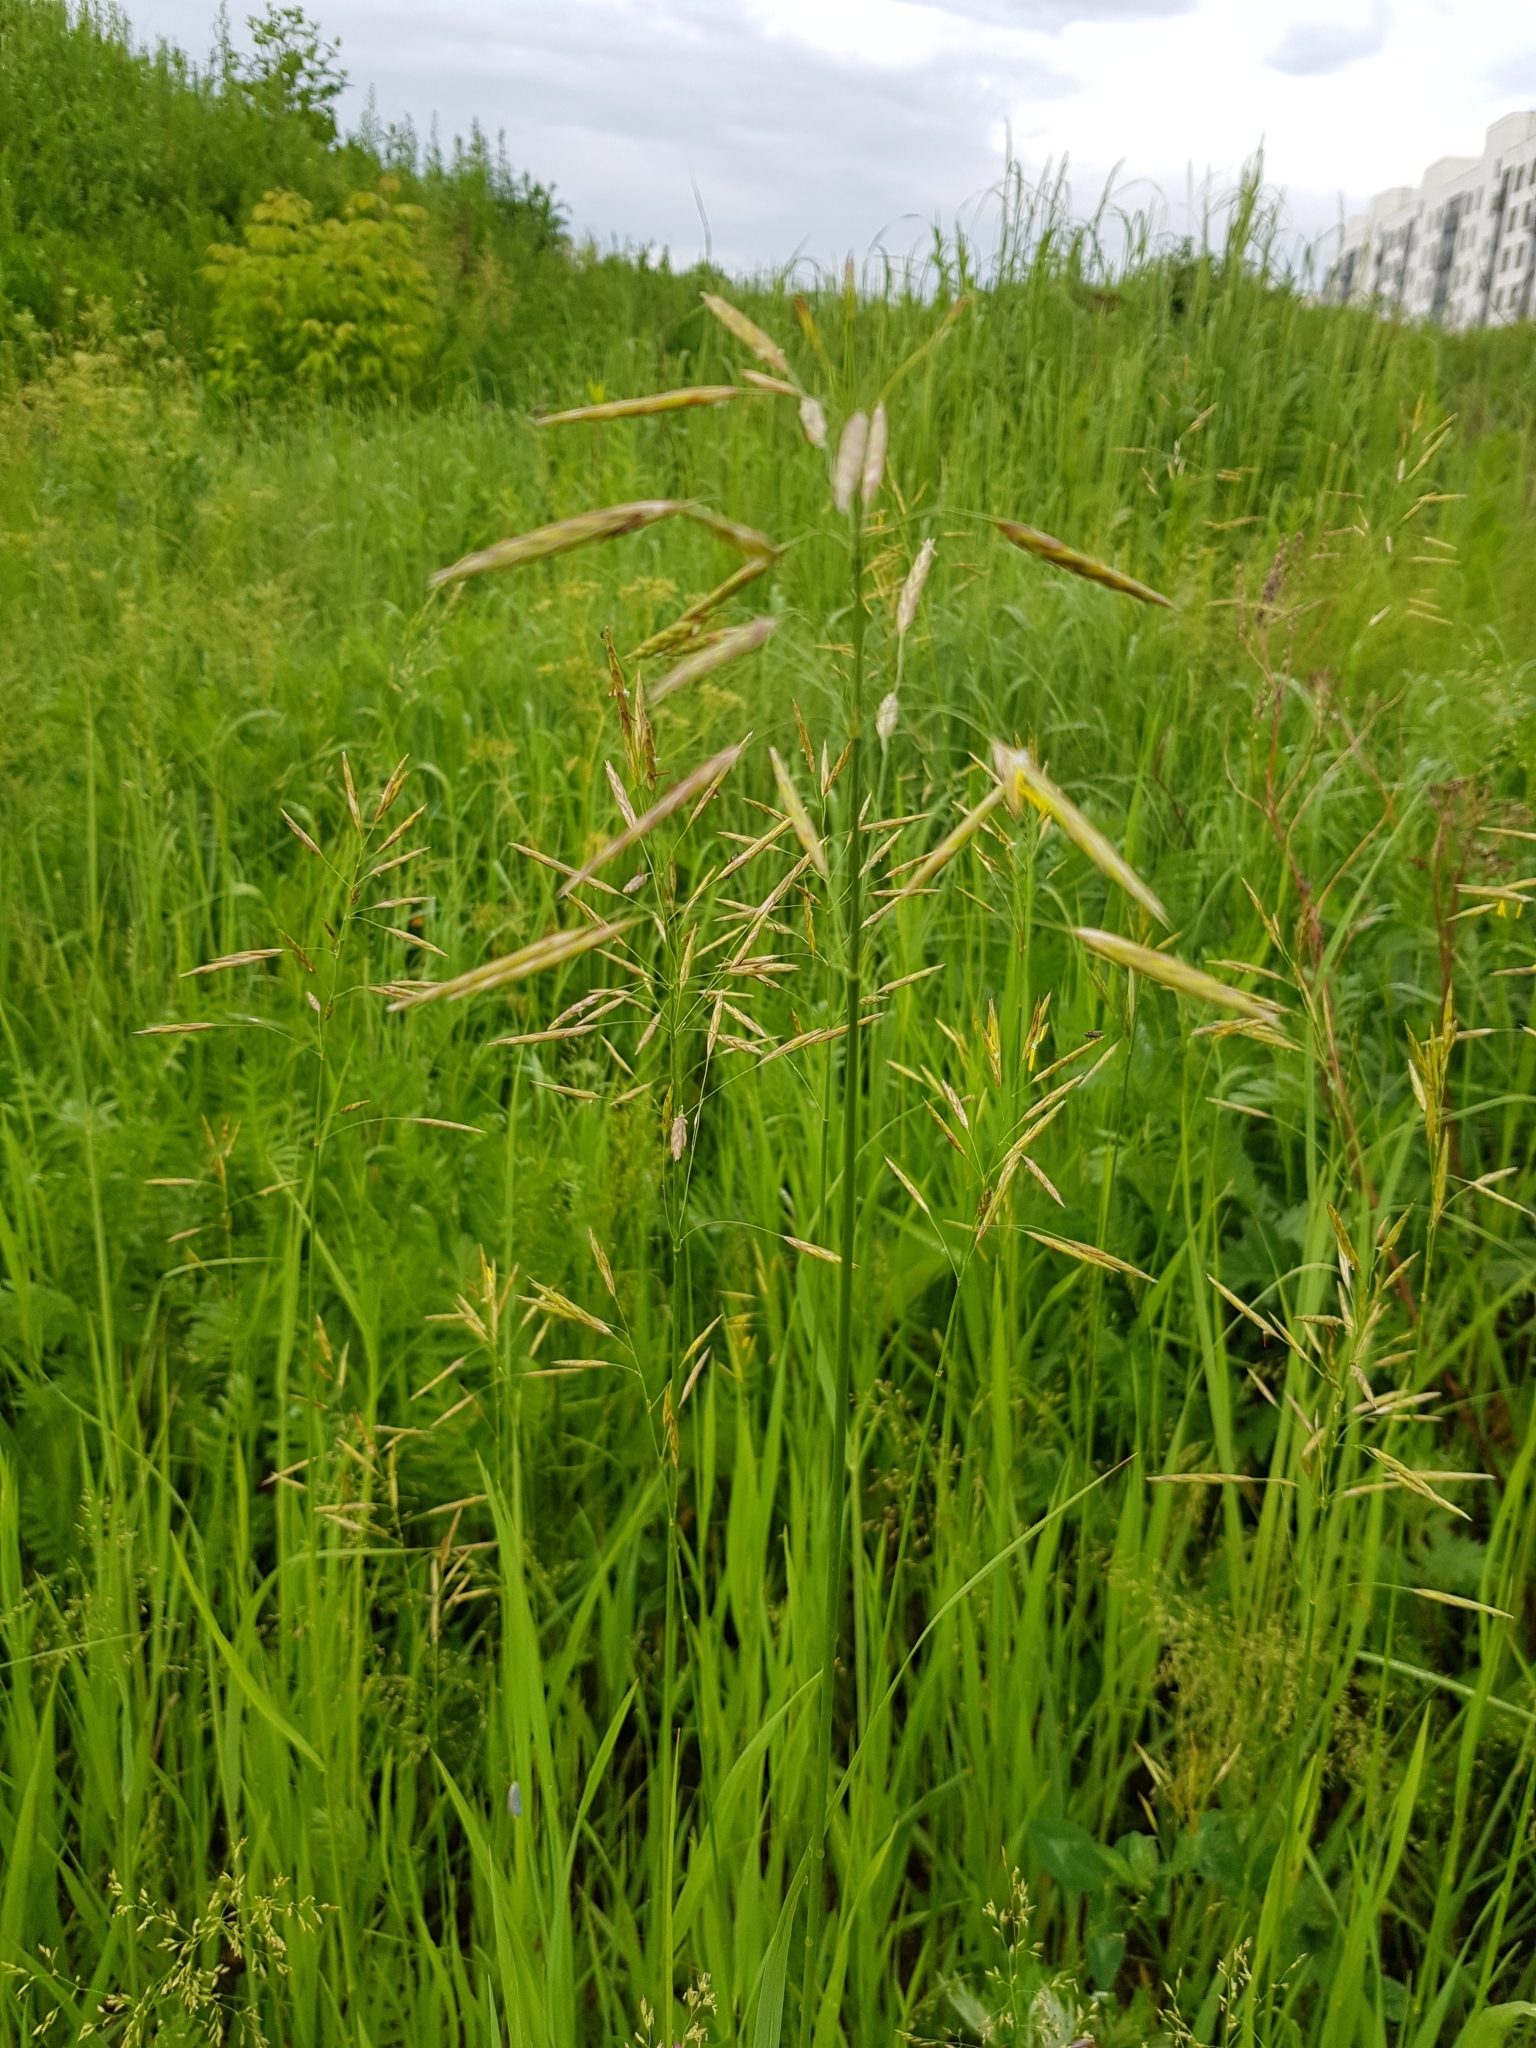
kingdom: Plantae
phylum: Tracheophyta
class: Liliopsida
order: Poales
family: Poaceae
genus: Bromus
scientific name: Bromus inermis
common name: Smooth brome
